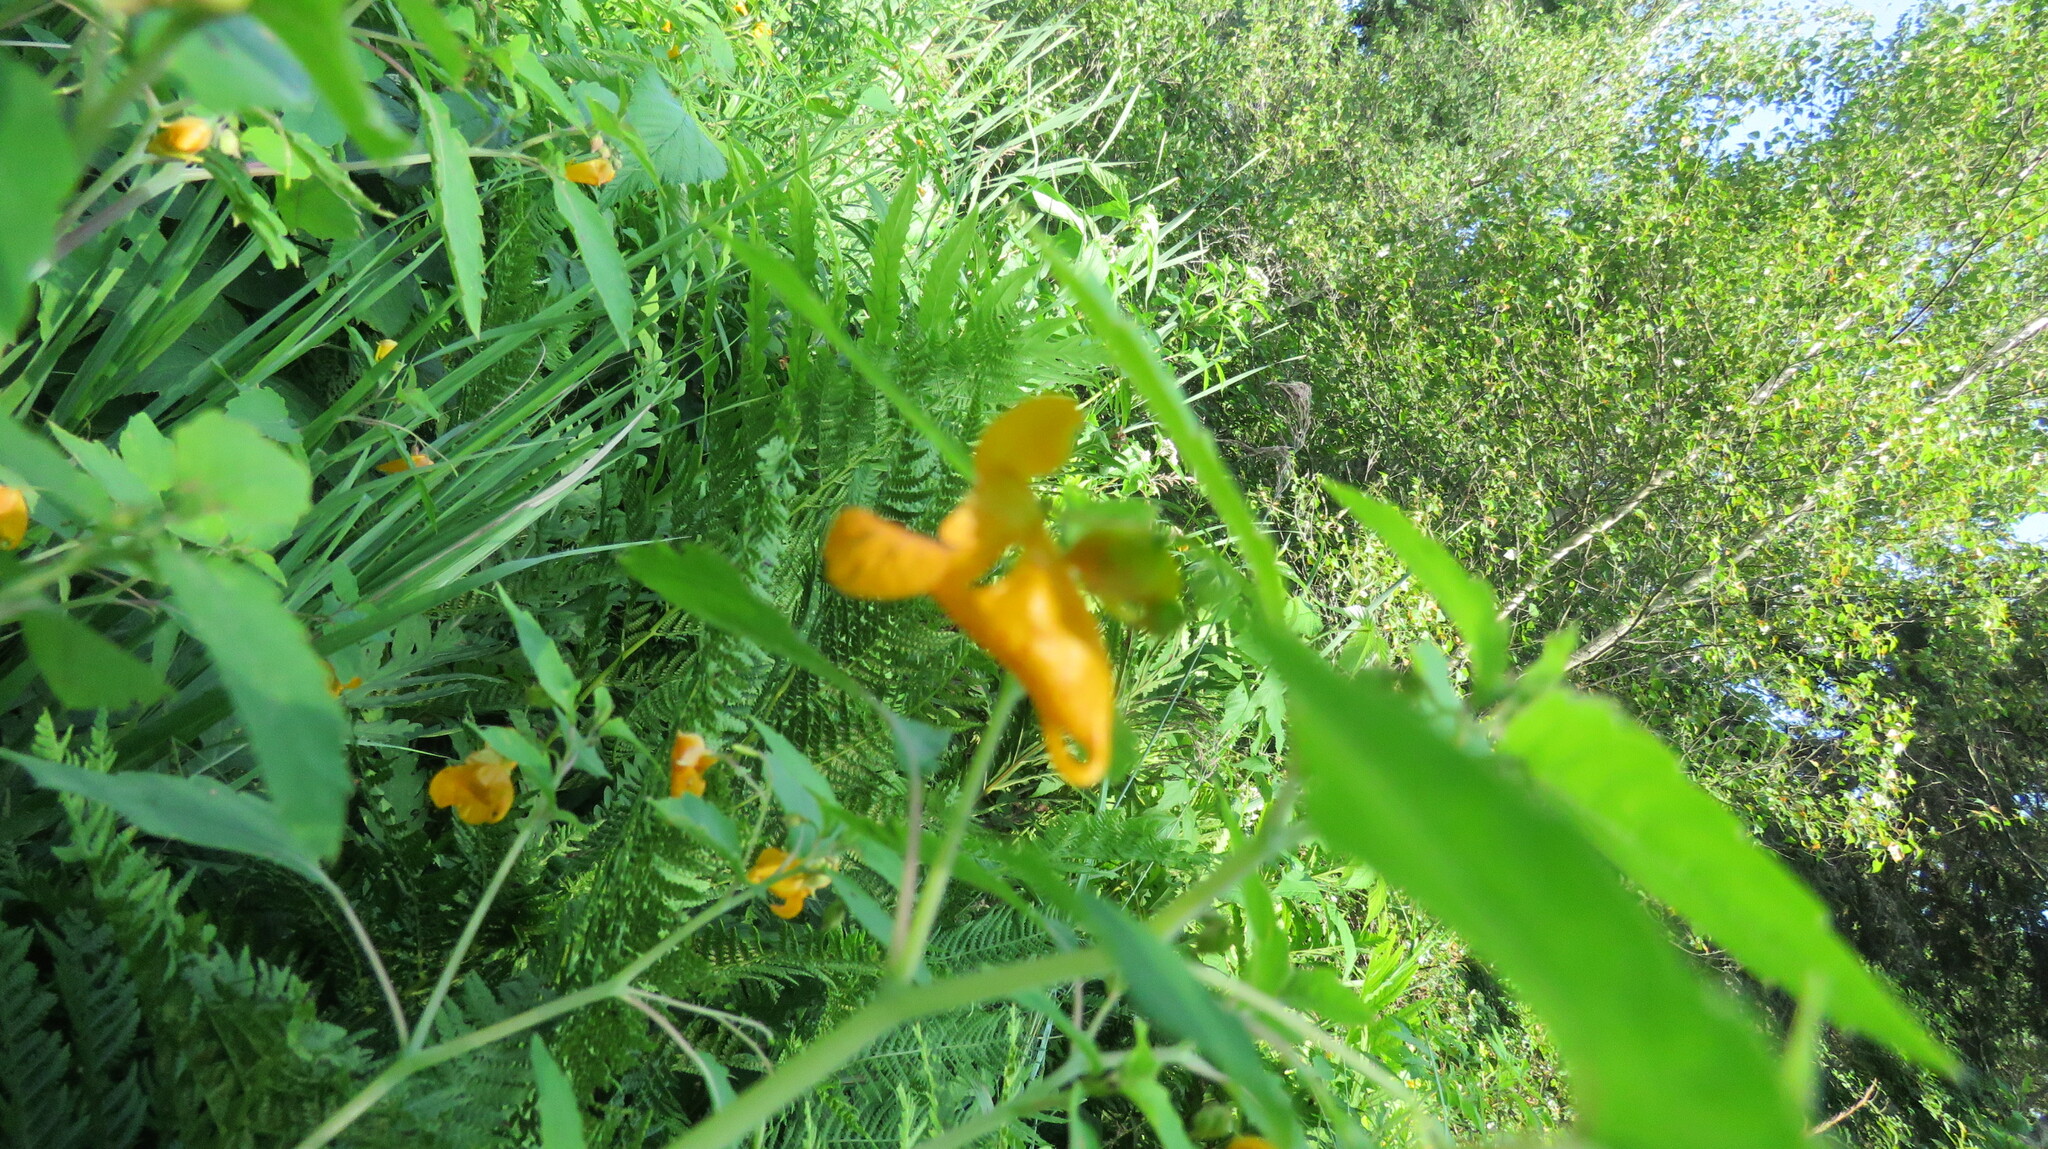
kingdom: Plantae
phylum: Tracheophyta
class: Magnoliopsida
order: Ericales
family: Balsaminaceae
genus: Impatiens
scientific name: Impatiens capensis
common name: Orange balsam
